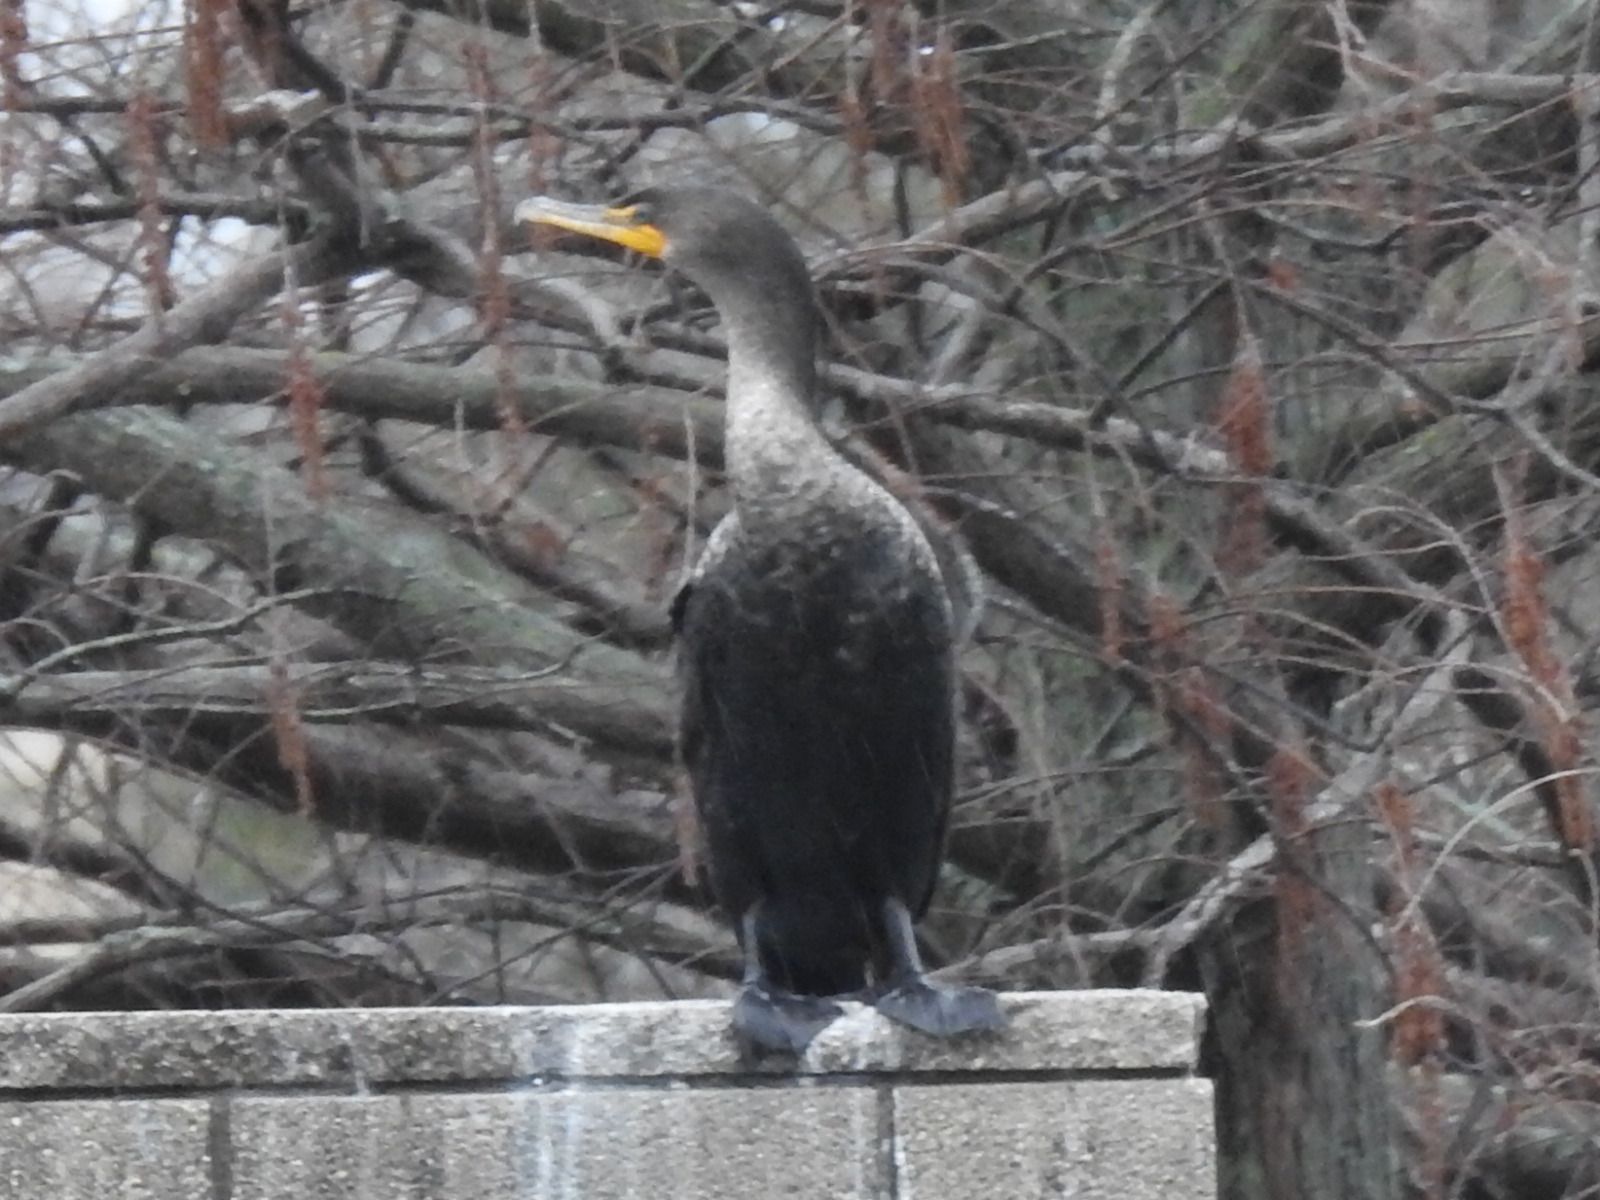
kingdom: Animalia
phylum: Chordata
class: Aves
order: Suliformes
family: Phalacrocoracidae
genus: Phalacrocorax
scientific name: Phalacrocorax auritus
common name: Double-crested cormorant
